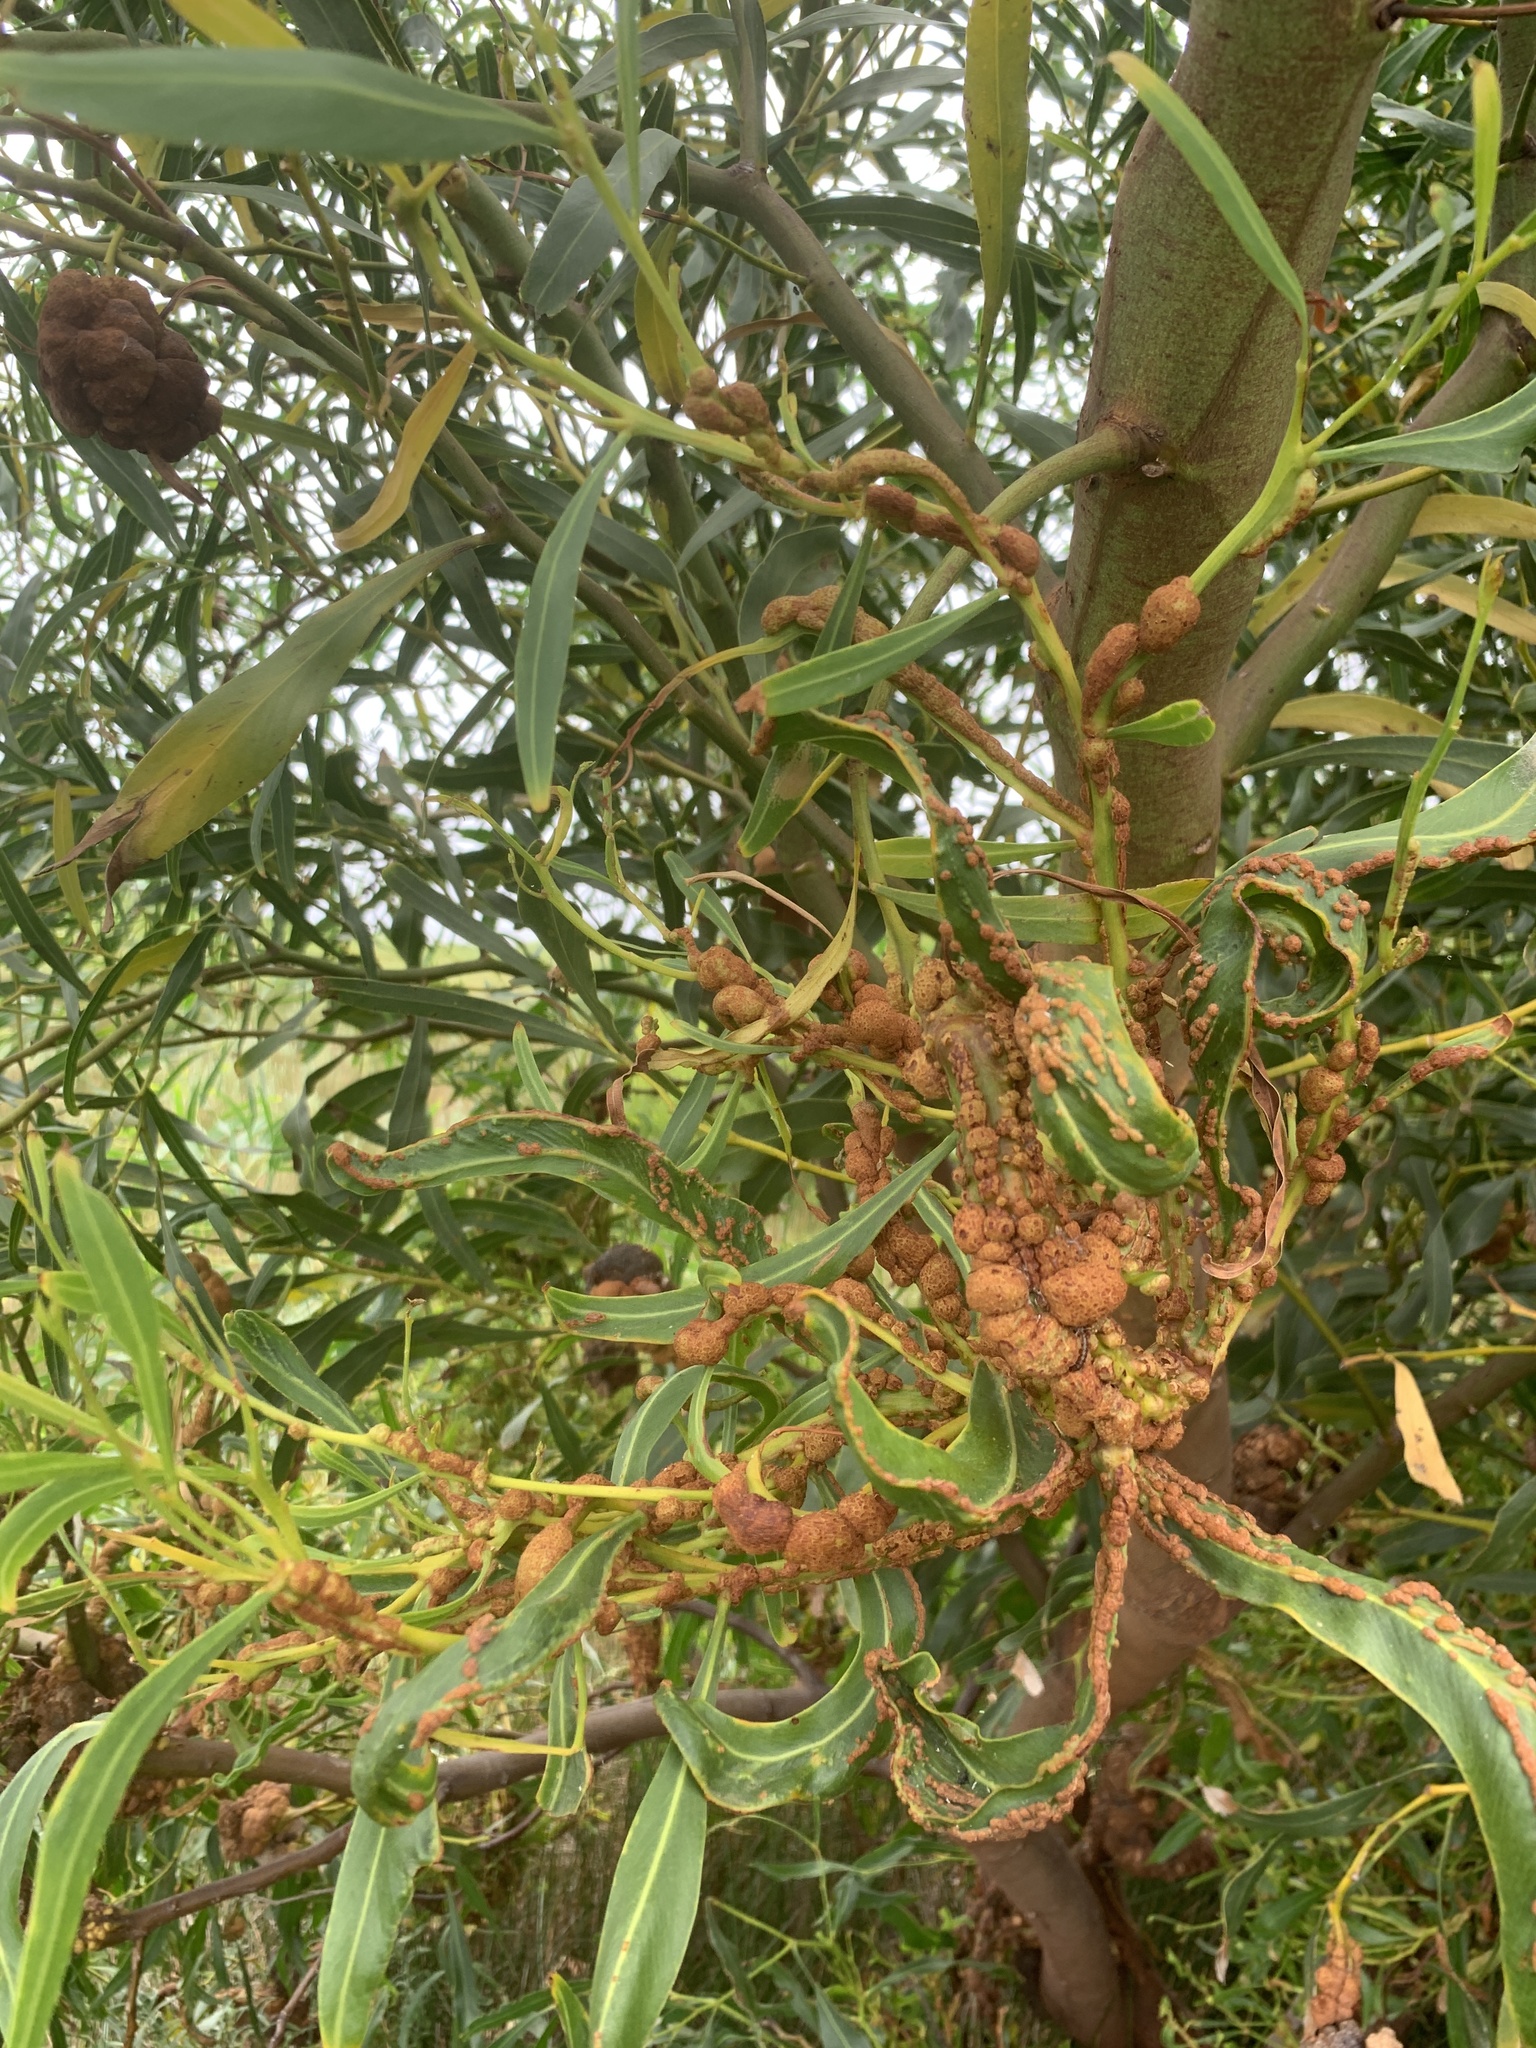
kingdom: Fungi
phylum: Basidiomycota
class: Pucciniomycetes
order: Pucciniales
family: Uromycladiaceae
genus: Uromycladium
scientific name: Uromycladium morrisii
